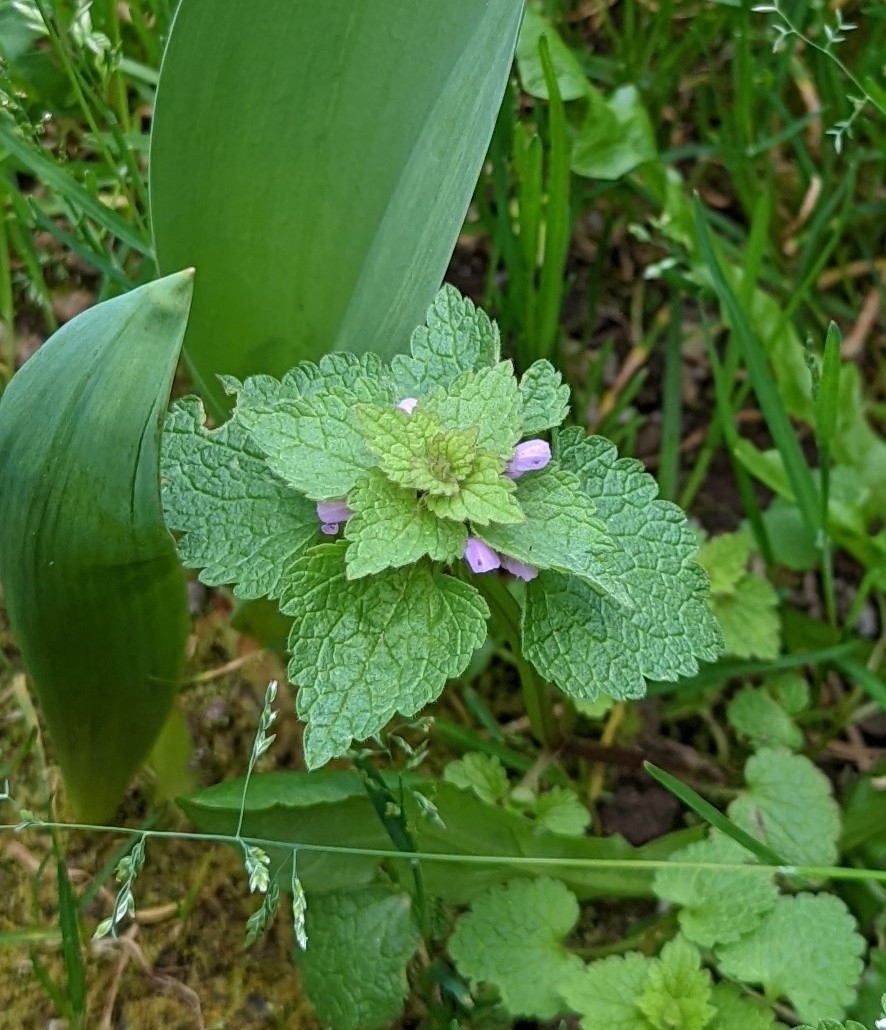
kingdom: Plantae
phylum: Tracheophyta
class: Magnoliopsida
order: Lamiales
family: Lamiaceae
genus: Lamium
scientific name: Lamium purpureum
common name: Red dead-nettle
